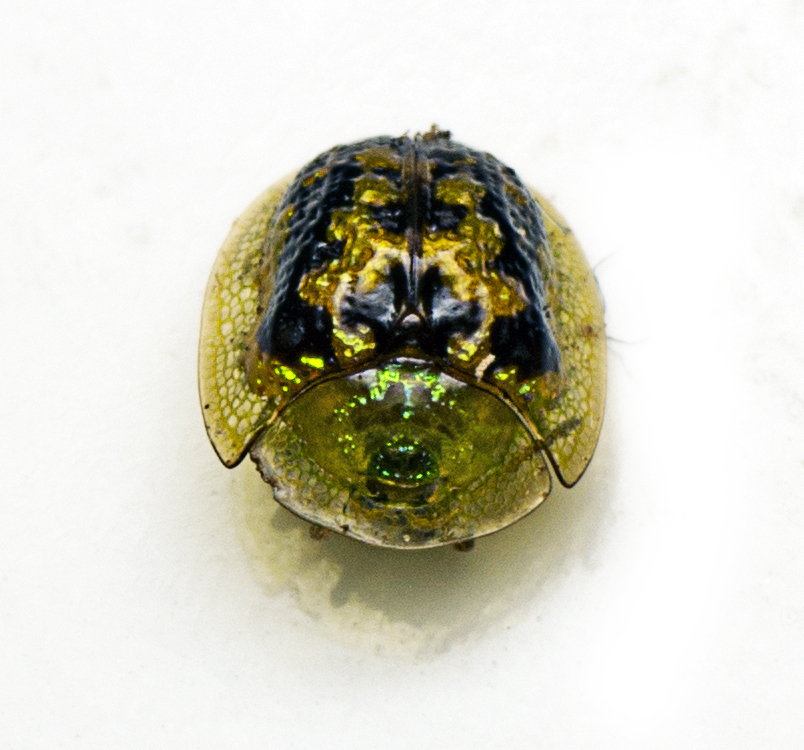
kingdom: Animalia
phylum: Arthropoda
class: Insecta
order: Coleoptera
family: Chrysomelidae
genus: Cassida
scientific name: Cassida diomma
